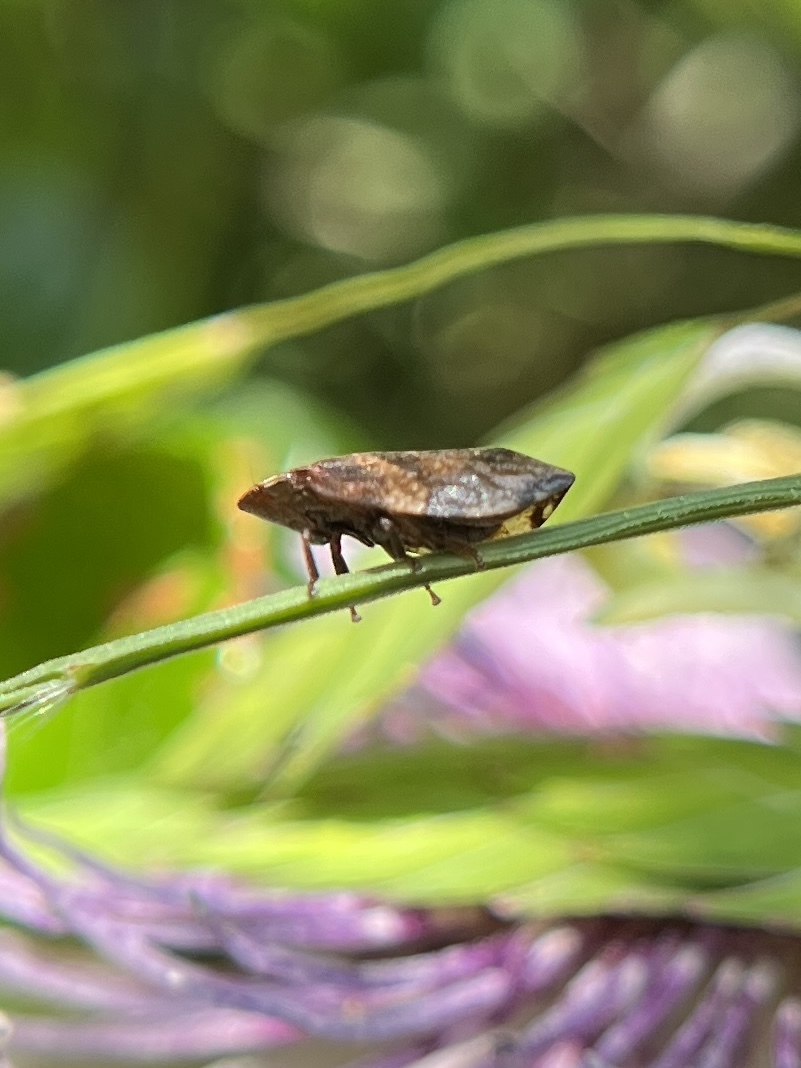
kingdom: Animalia
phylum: Arthropoda
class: Insecta
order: Hemiptera
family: Aphrophoridae
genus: Lepyronia
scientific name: Lepyronia quadrangularis
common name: Diamond-backed spittlebug
